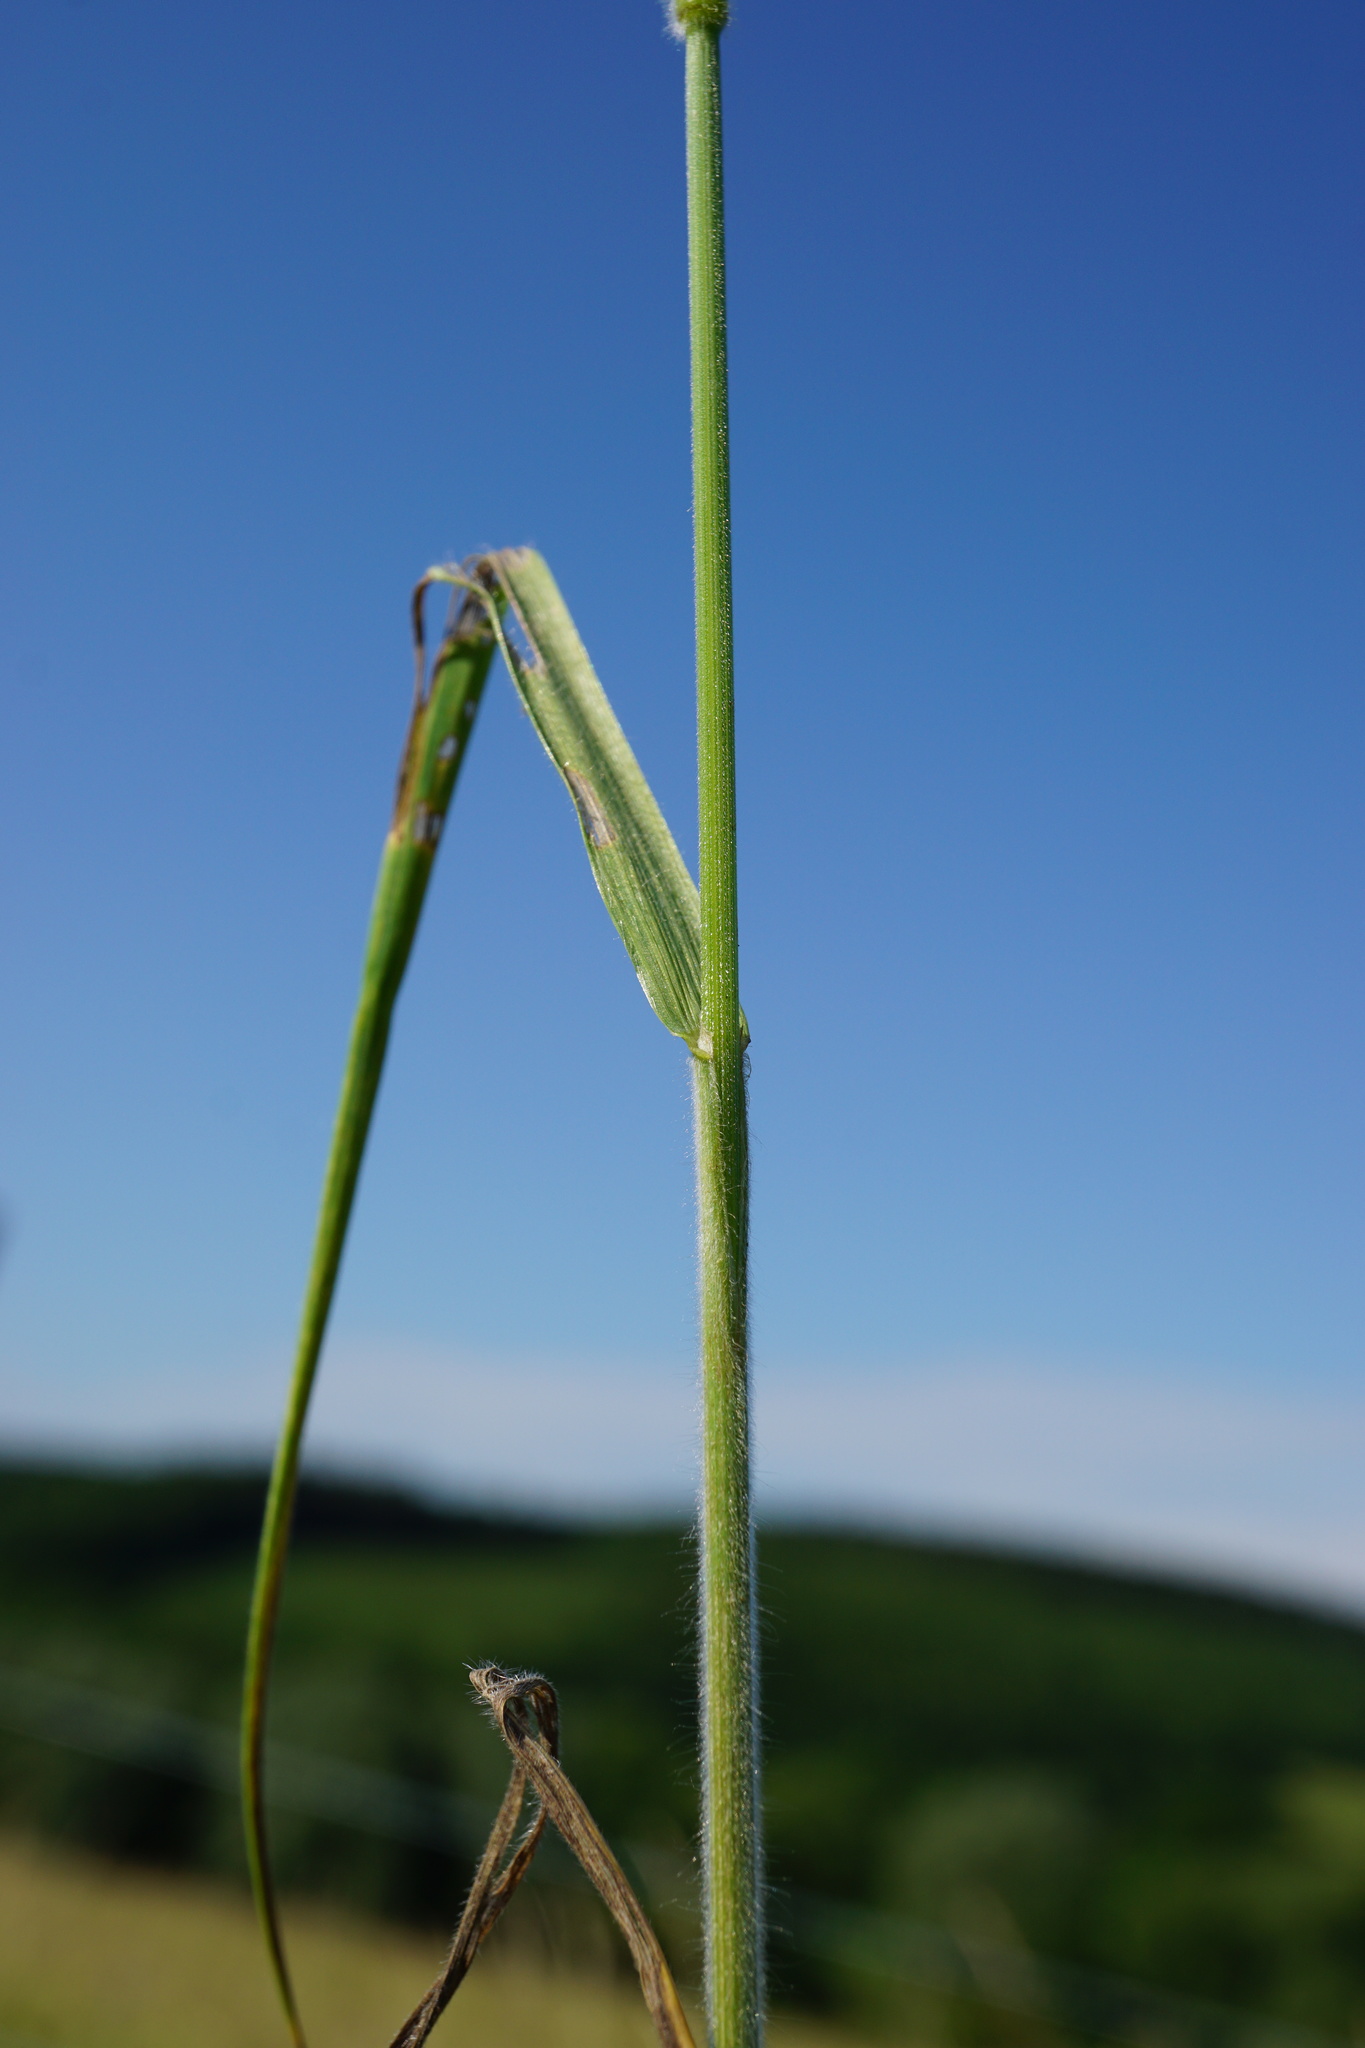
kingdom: Plantae
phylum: Tracheophyta
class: Liliopsida
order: Poales
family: Poaceae
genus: Bromus
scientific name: Bromus hordeaceus
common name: Soft brome
